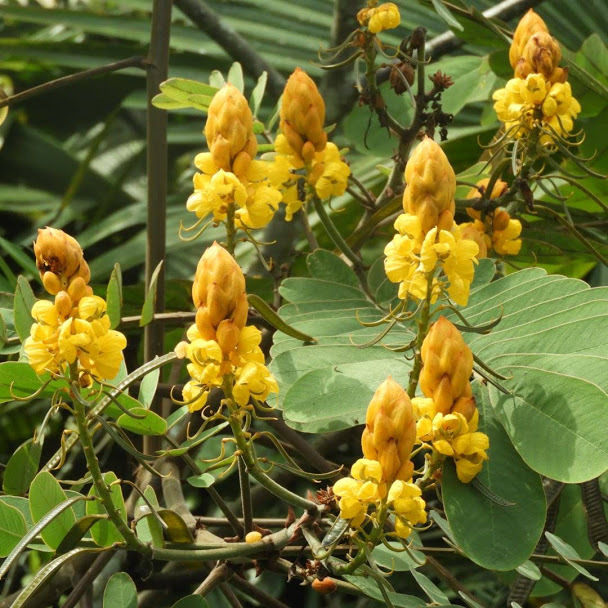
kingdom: Plantae
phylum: Tracheophyta
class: Magnoliopsida
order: Fabales
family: Fabaceae
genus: Senna
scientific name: Senna reticulata
